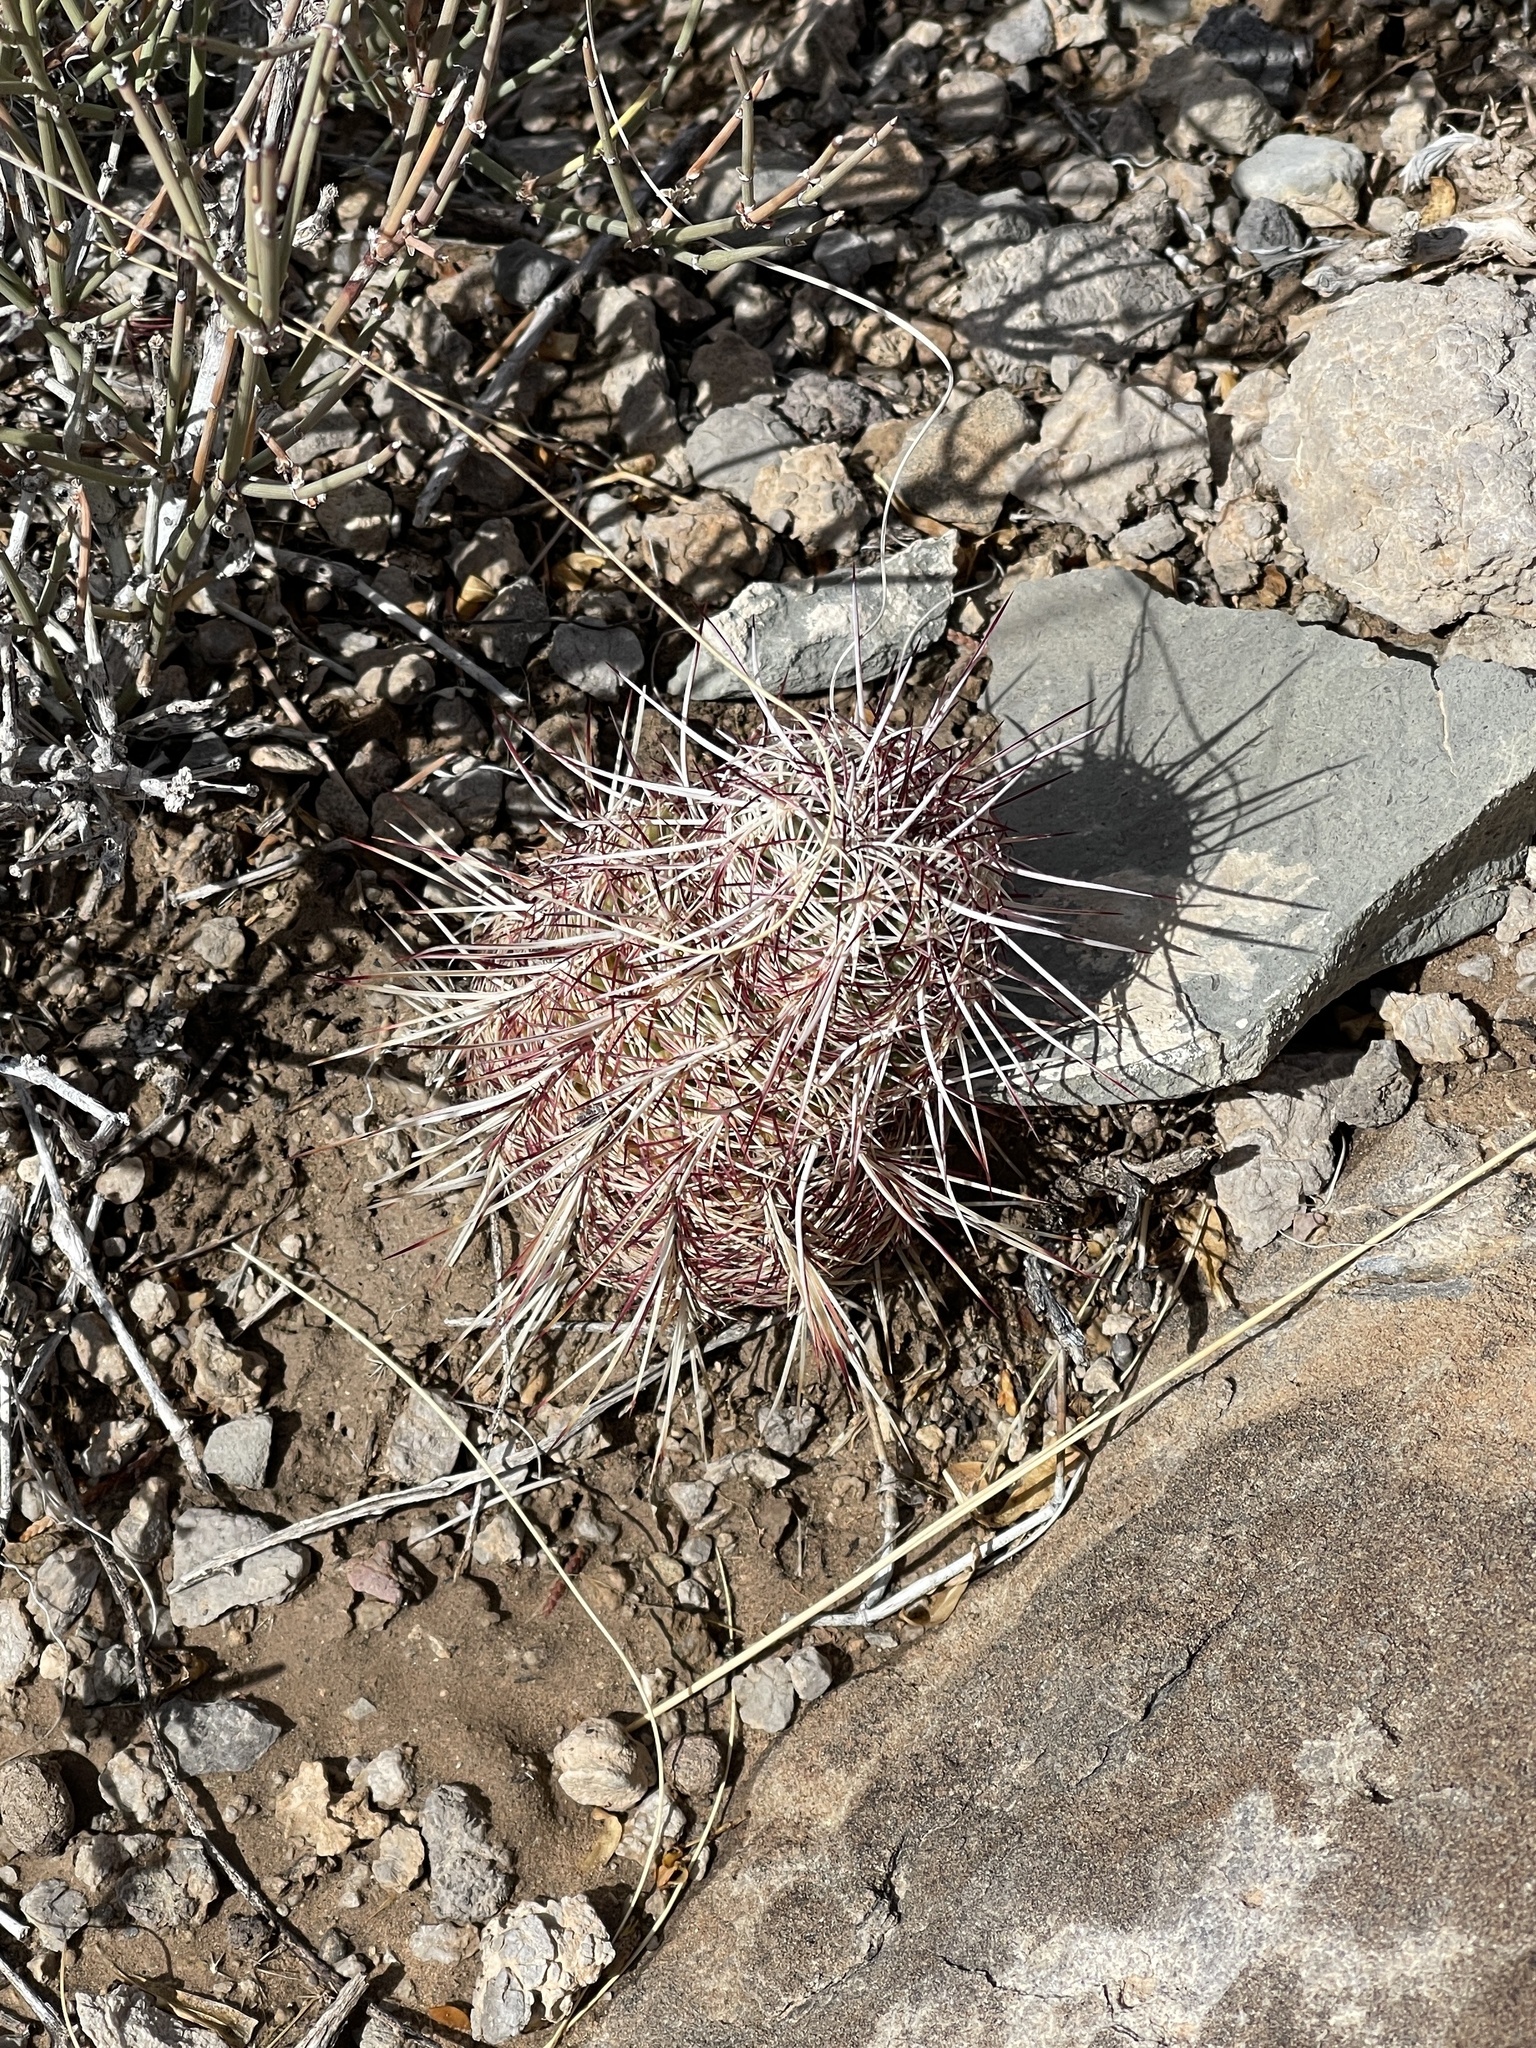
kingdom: Plantae
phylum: Tracheophyta
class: Magnoliopsida
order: Caryophyllales
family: Cactaceae
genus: Echinocereus
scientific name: Echinocereus viridiflorus
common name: Nylon hedgehog cactus
